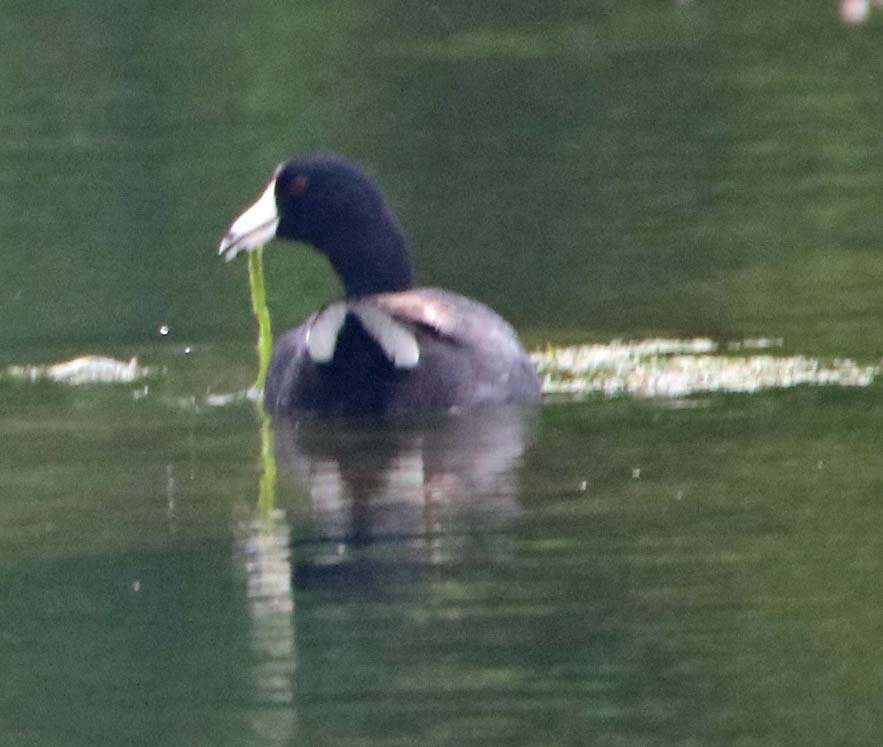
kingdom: Animalia
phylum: Chordata
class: Aves
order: Gruiformes
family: Rallidae
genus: Fulica
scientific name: Fulica americana
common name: American coot
